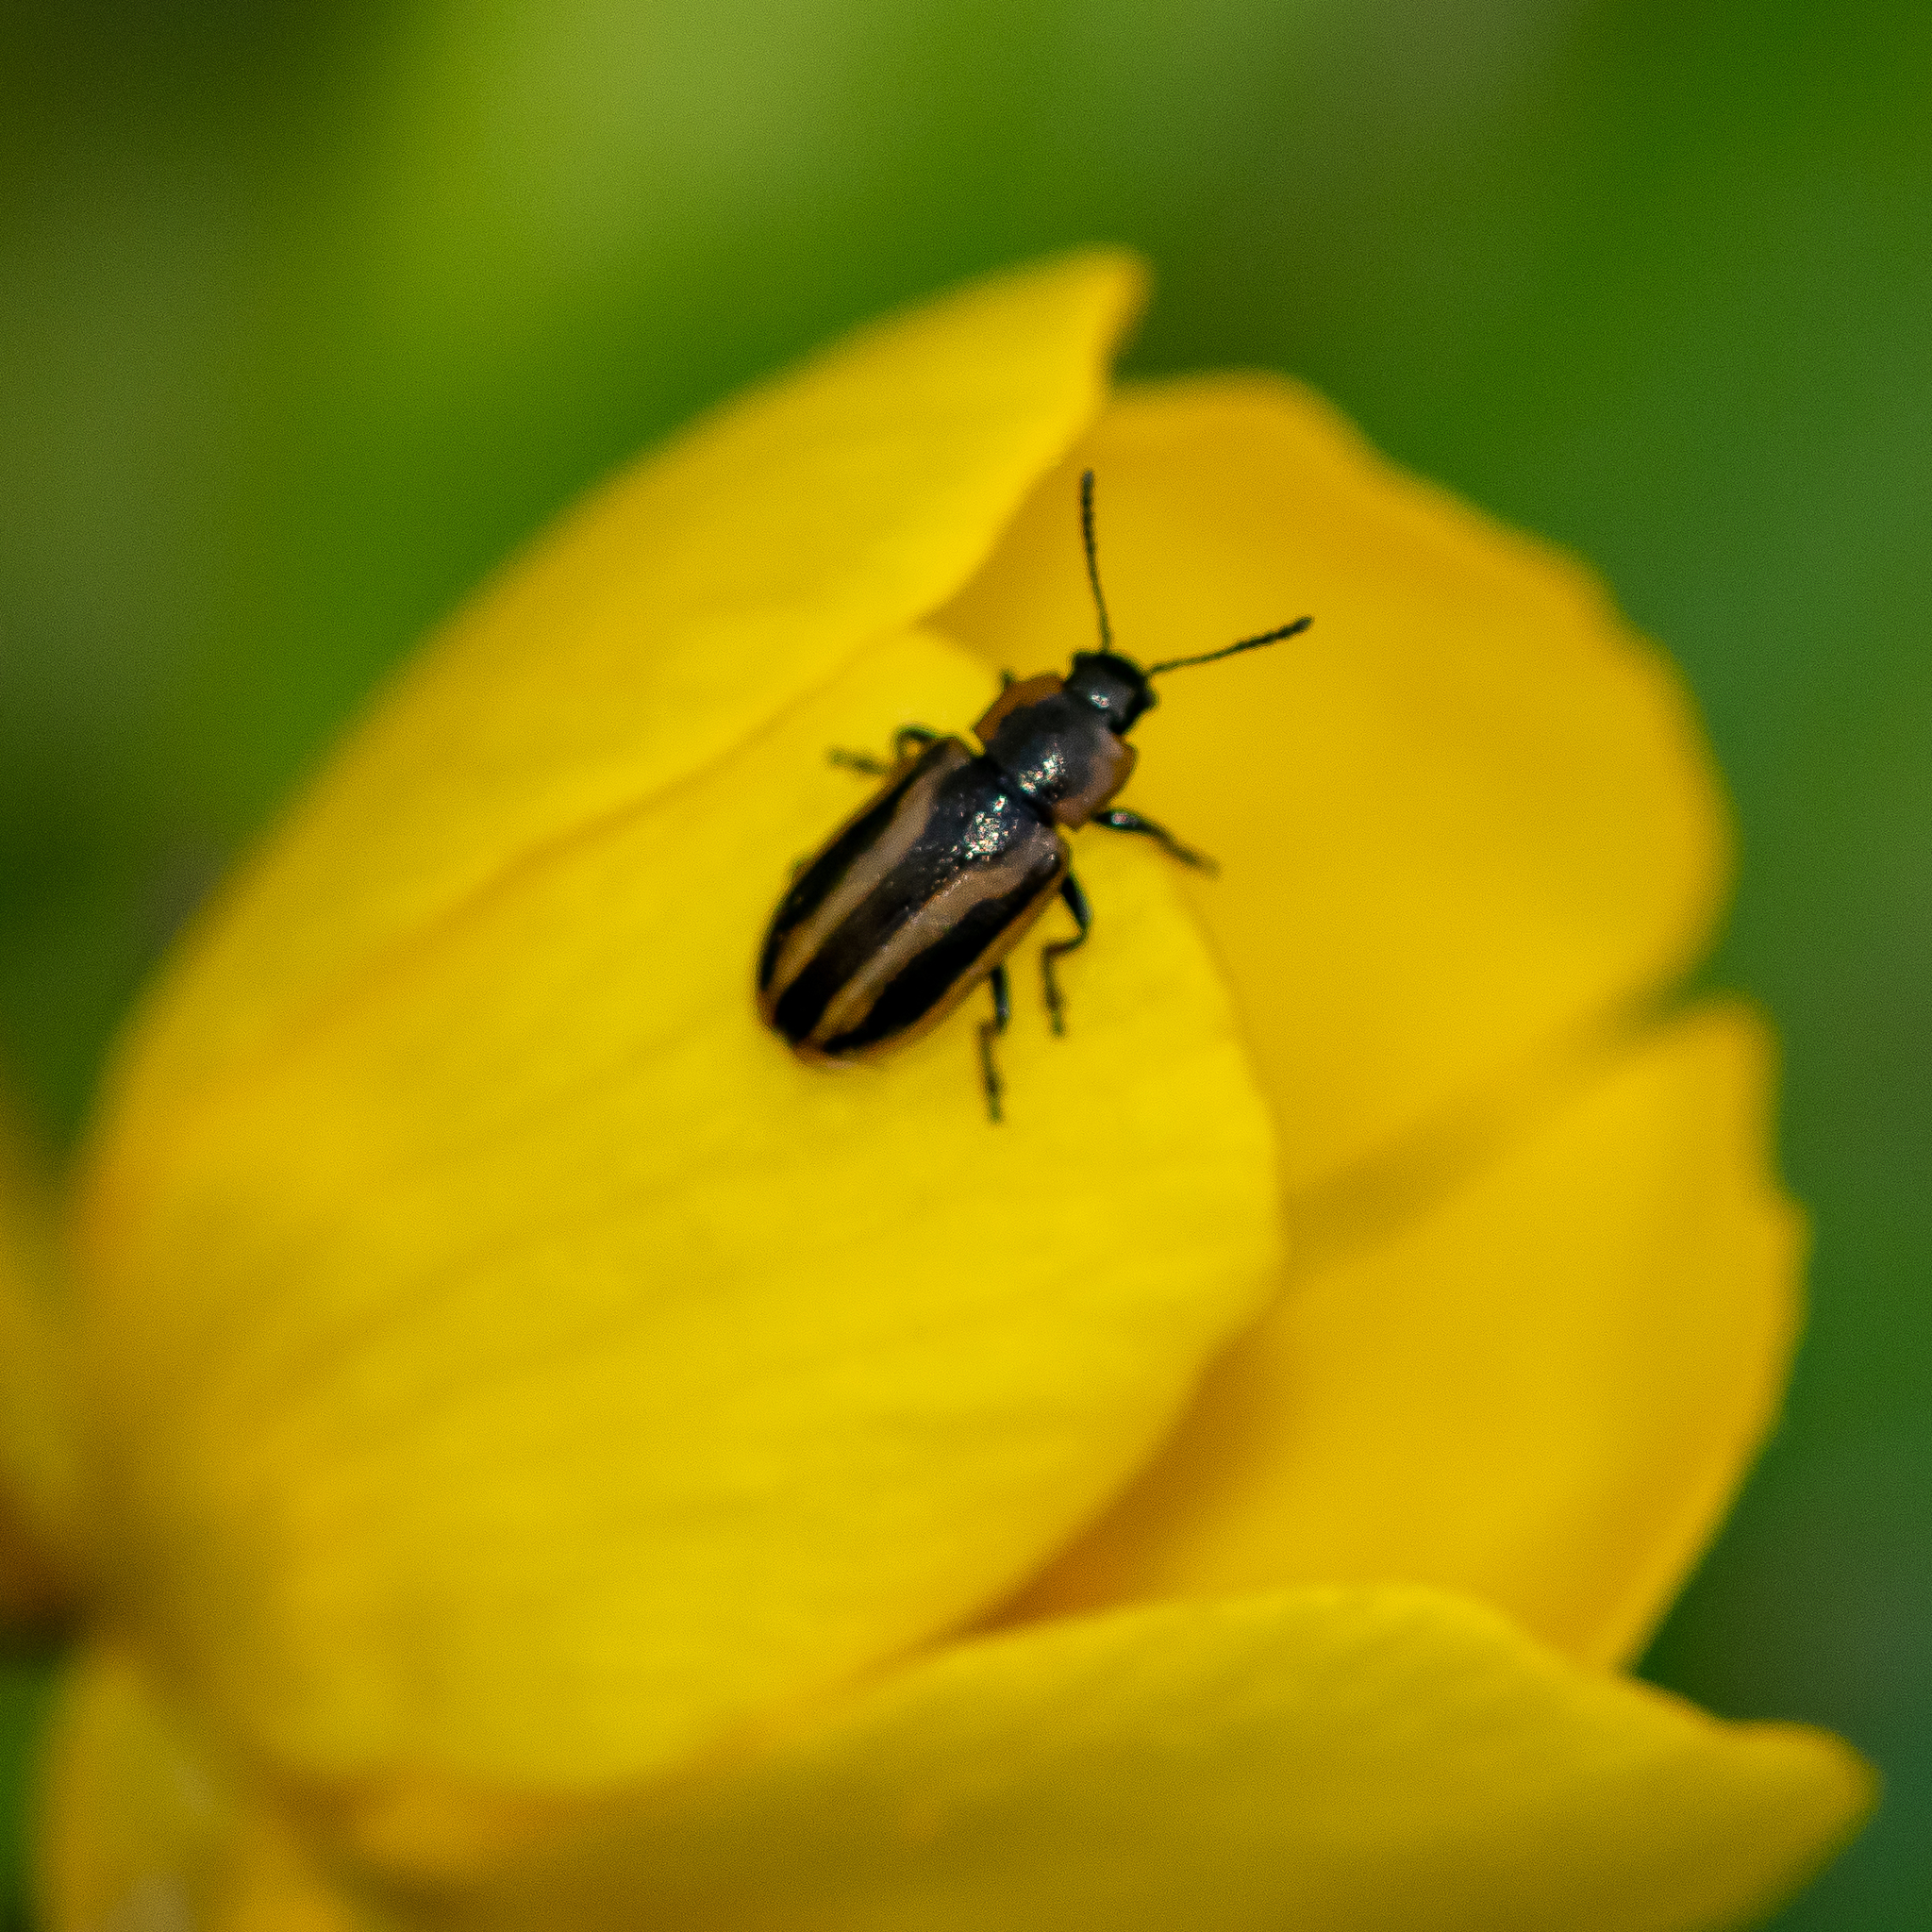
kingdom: Animalia
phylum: Arthropoda
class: Insecta
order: Coleoptera
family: Chrysomelidae
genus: Prasocuris
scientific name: Prasocuris vittata
